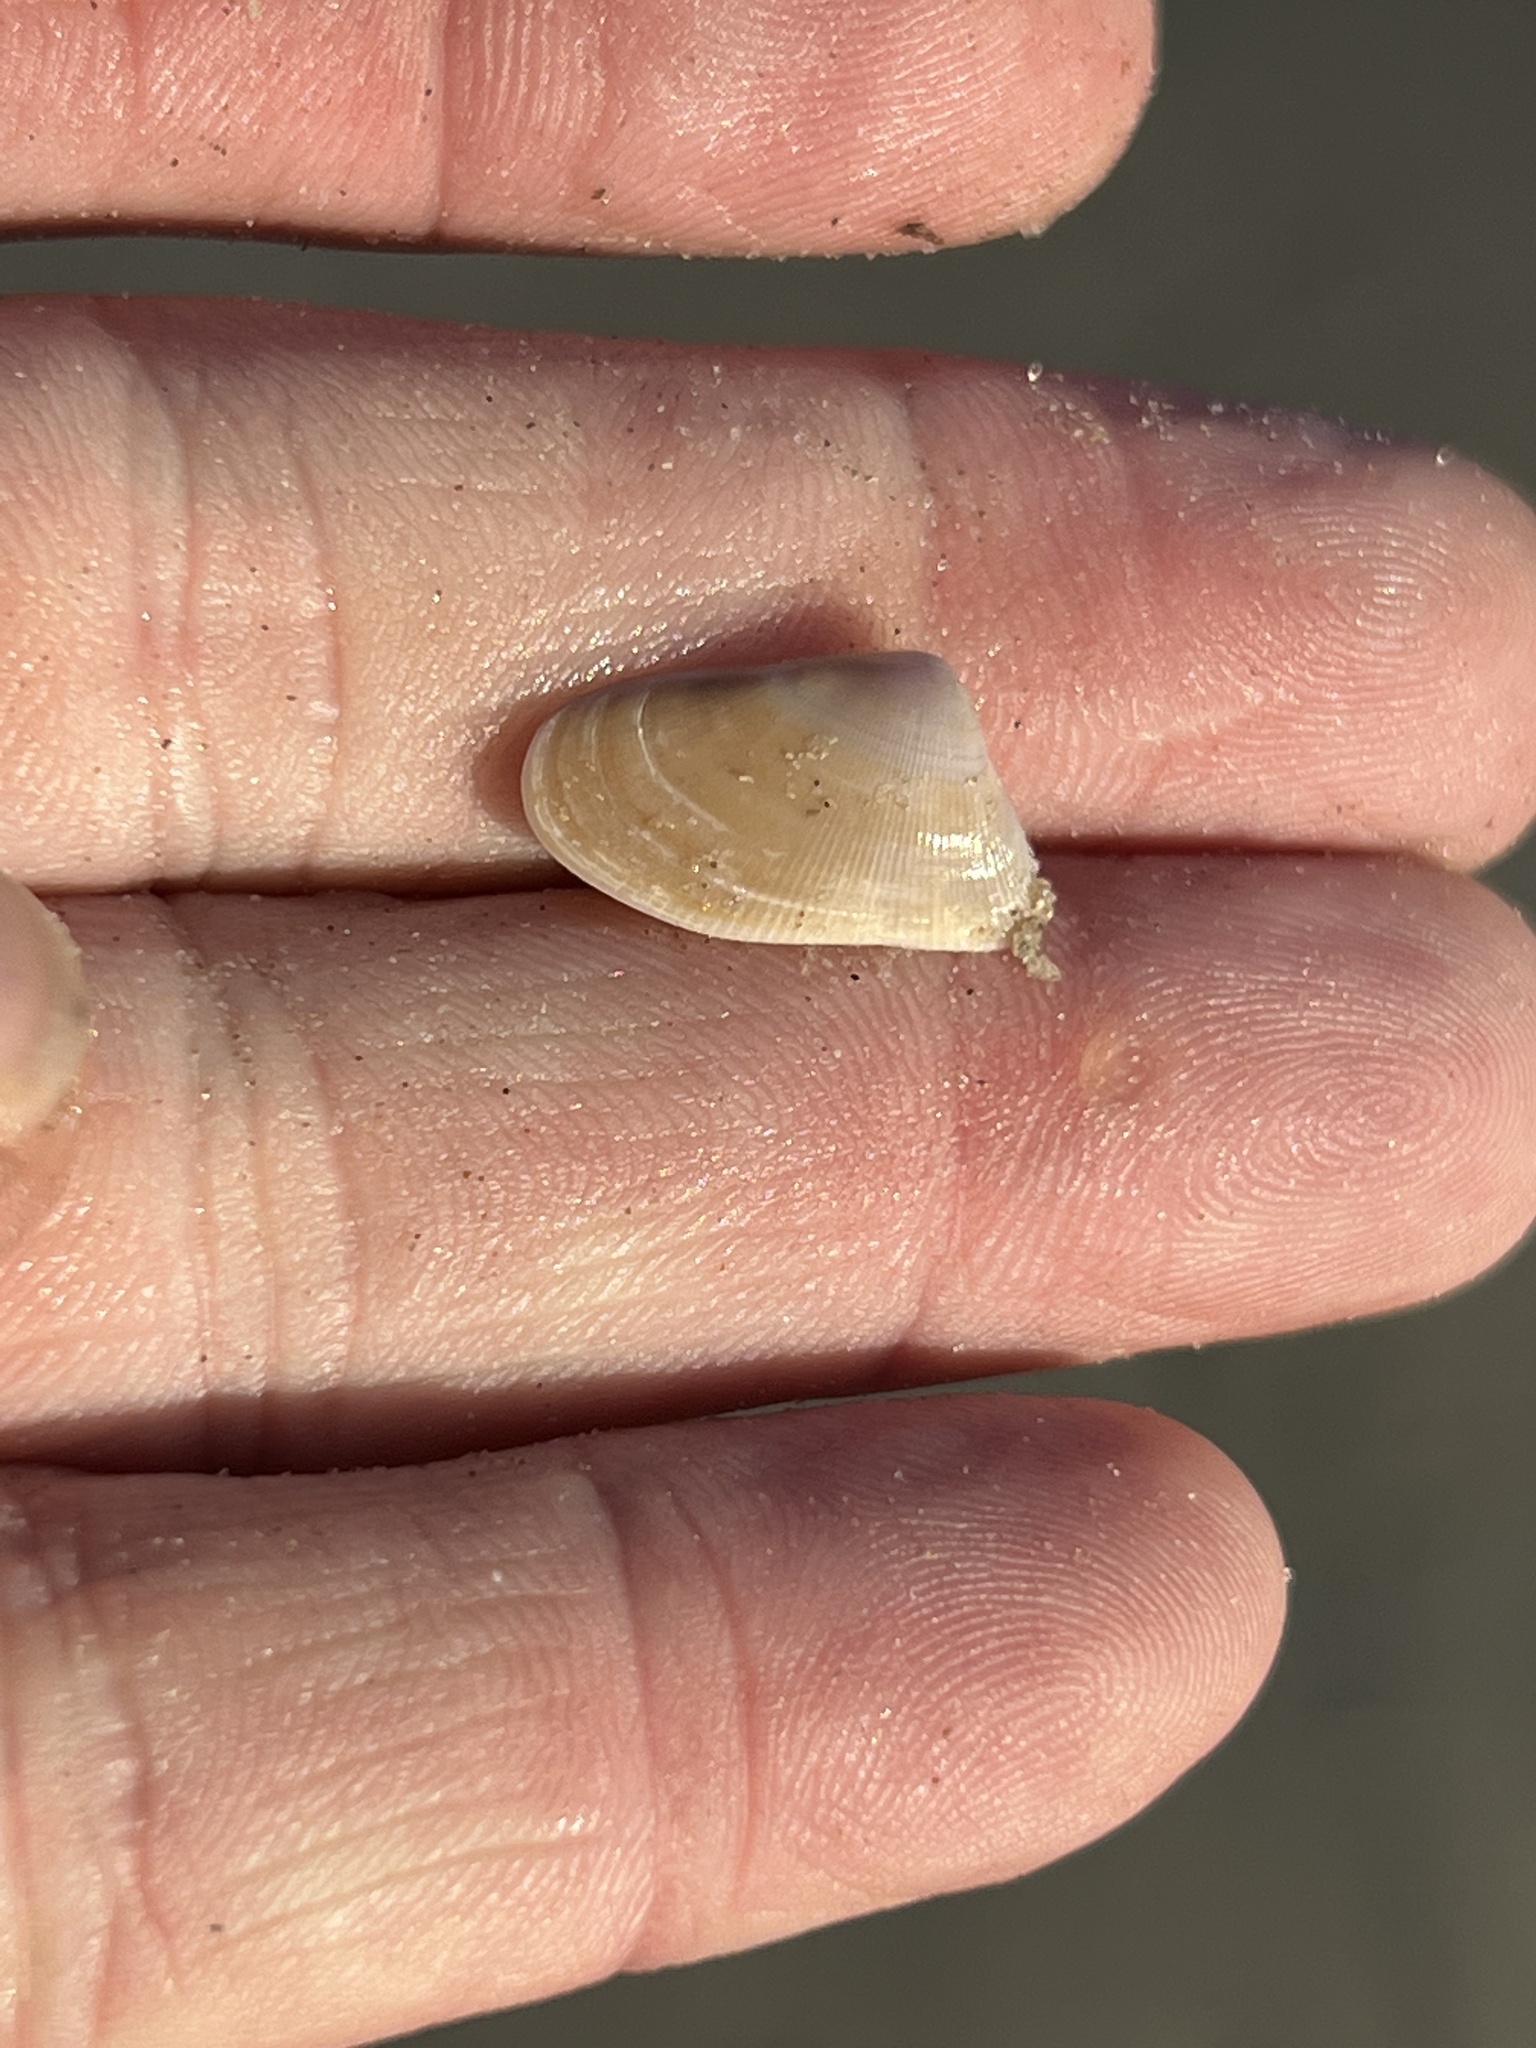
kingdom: Animalia
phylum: Mollusca
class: Bivalvia
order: Cardiida
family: Donacidae
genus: Donax
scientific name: Donax variabilis
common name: Butterfly shell
